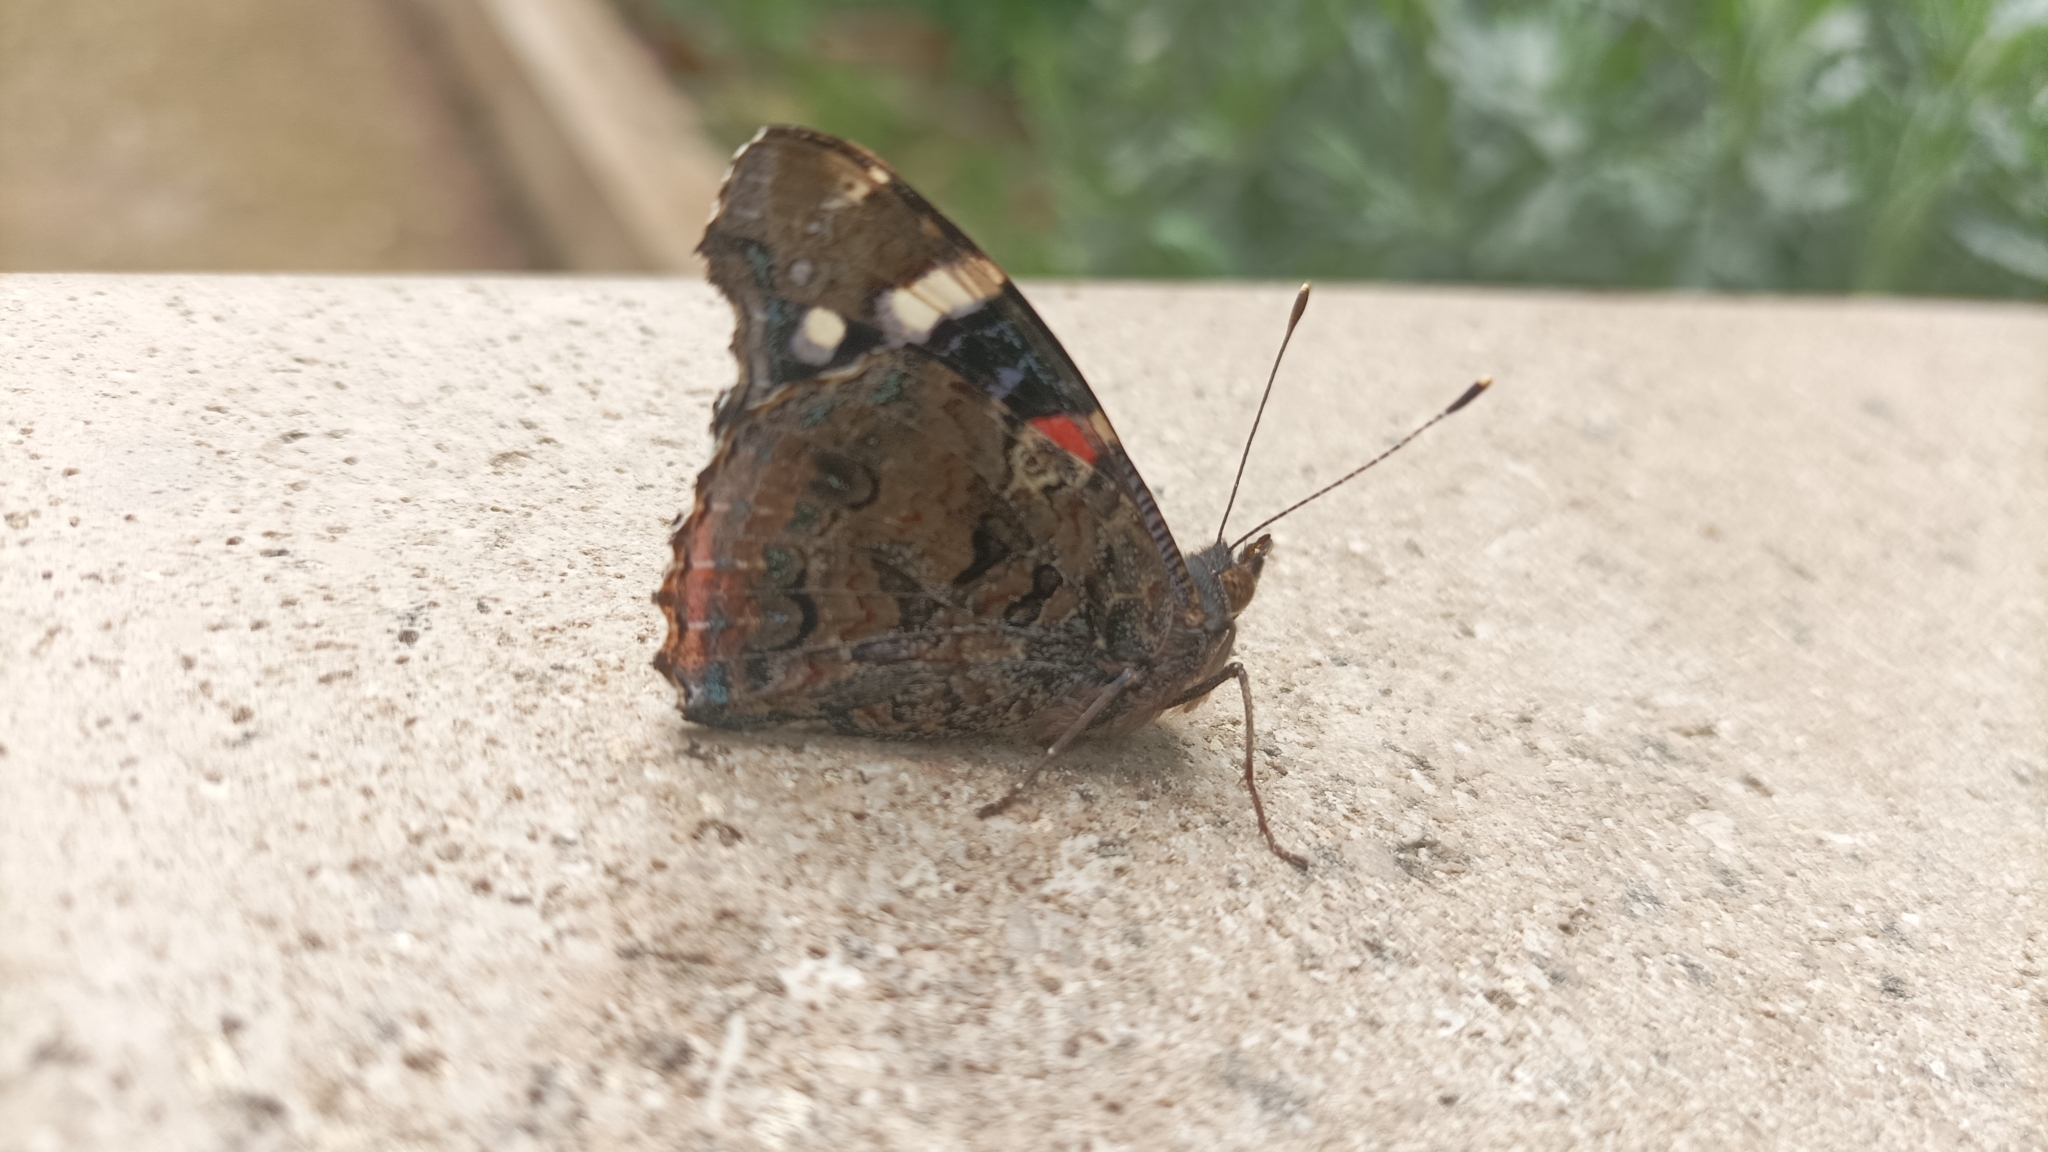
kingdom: Animalia
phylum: Arthropoda
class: Insecta
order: Lepidoptera
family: Nymphalidae
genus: Vanessa
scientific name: Vanessa atalanta
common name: Red admiral
